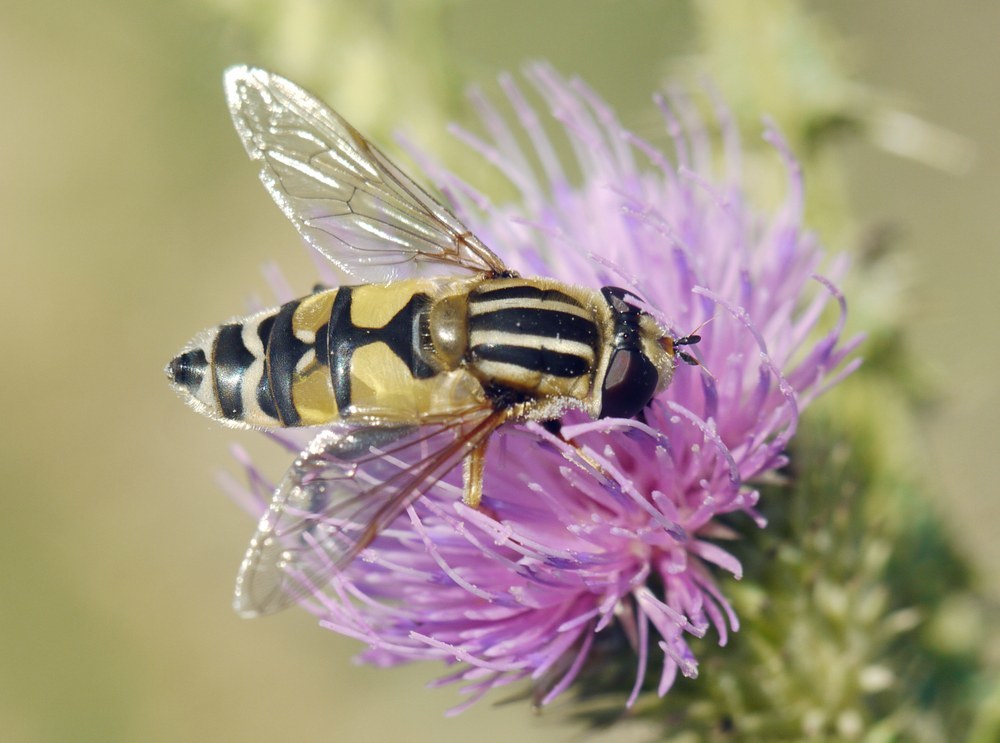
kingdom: Animalia
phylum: Arthropoda
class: Insecta
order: Diptera
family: Syrphidae
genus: Helophilus
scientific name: Helophilus trivittatus
